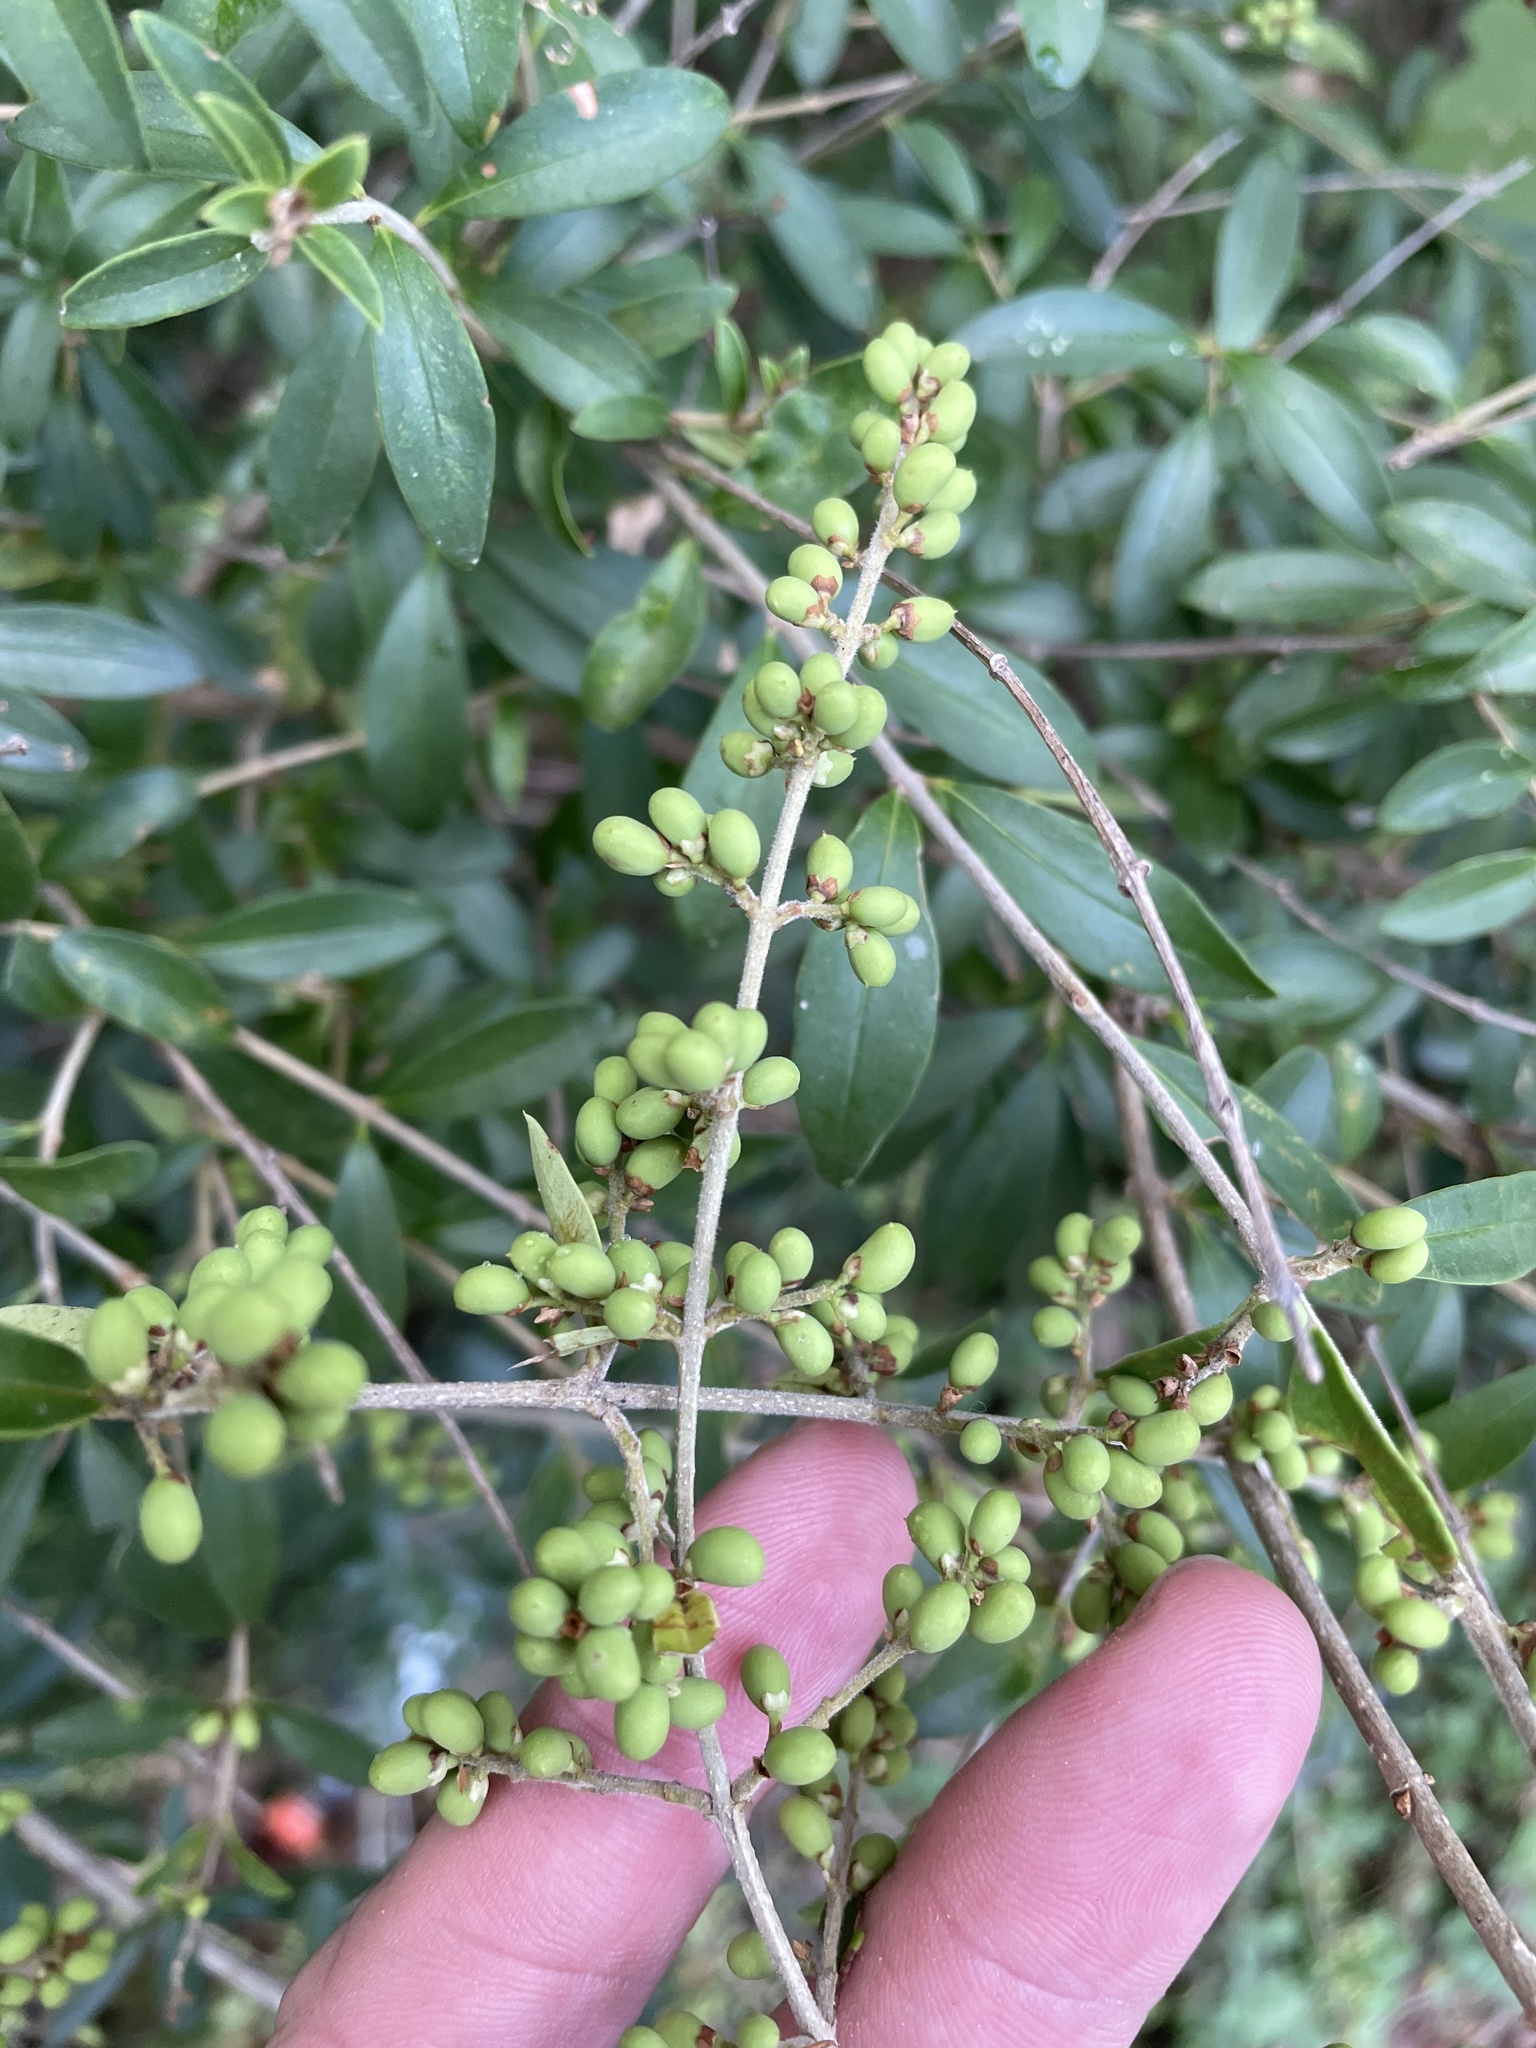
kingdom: Plantae
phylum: Tracheophyta
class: Magnoliopsida
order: Lamiales
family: Oleaceae
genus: Ligustrum
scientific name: Ligustrum quihoui
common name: Waxyleaf privet
